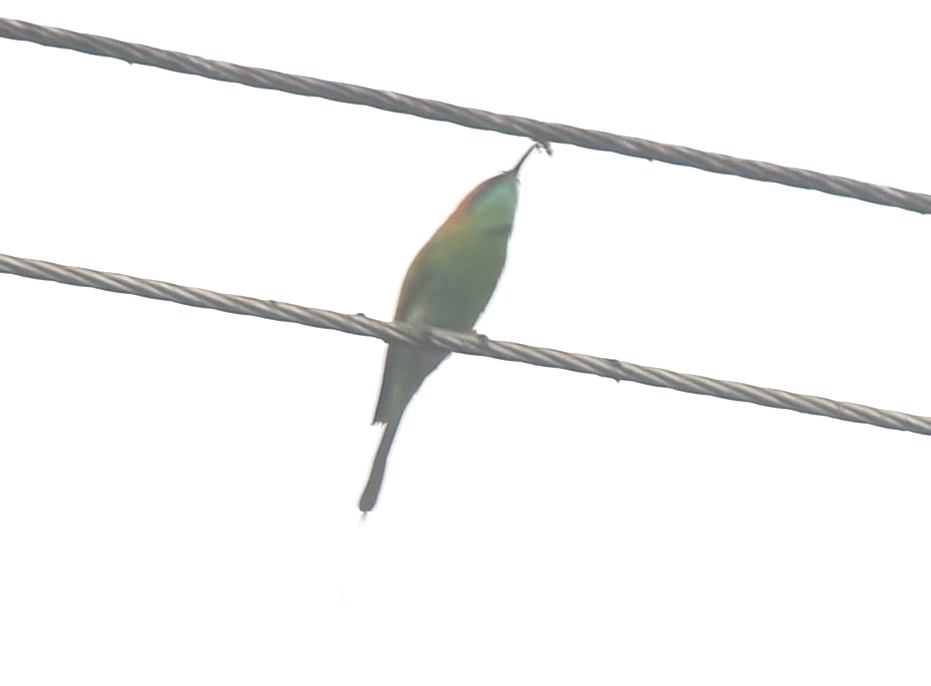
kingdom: Animalia
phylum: Chordata
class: Aves
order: Coraciiformes
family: Meropidae
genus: Merops
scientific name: Merops orientalis
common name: Green bee-eater
